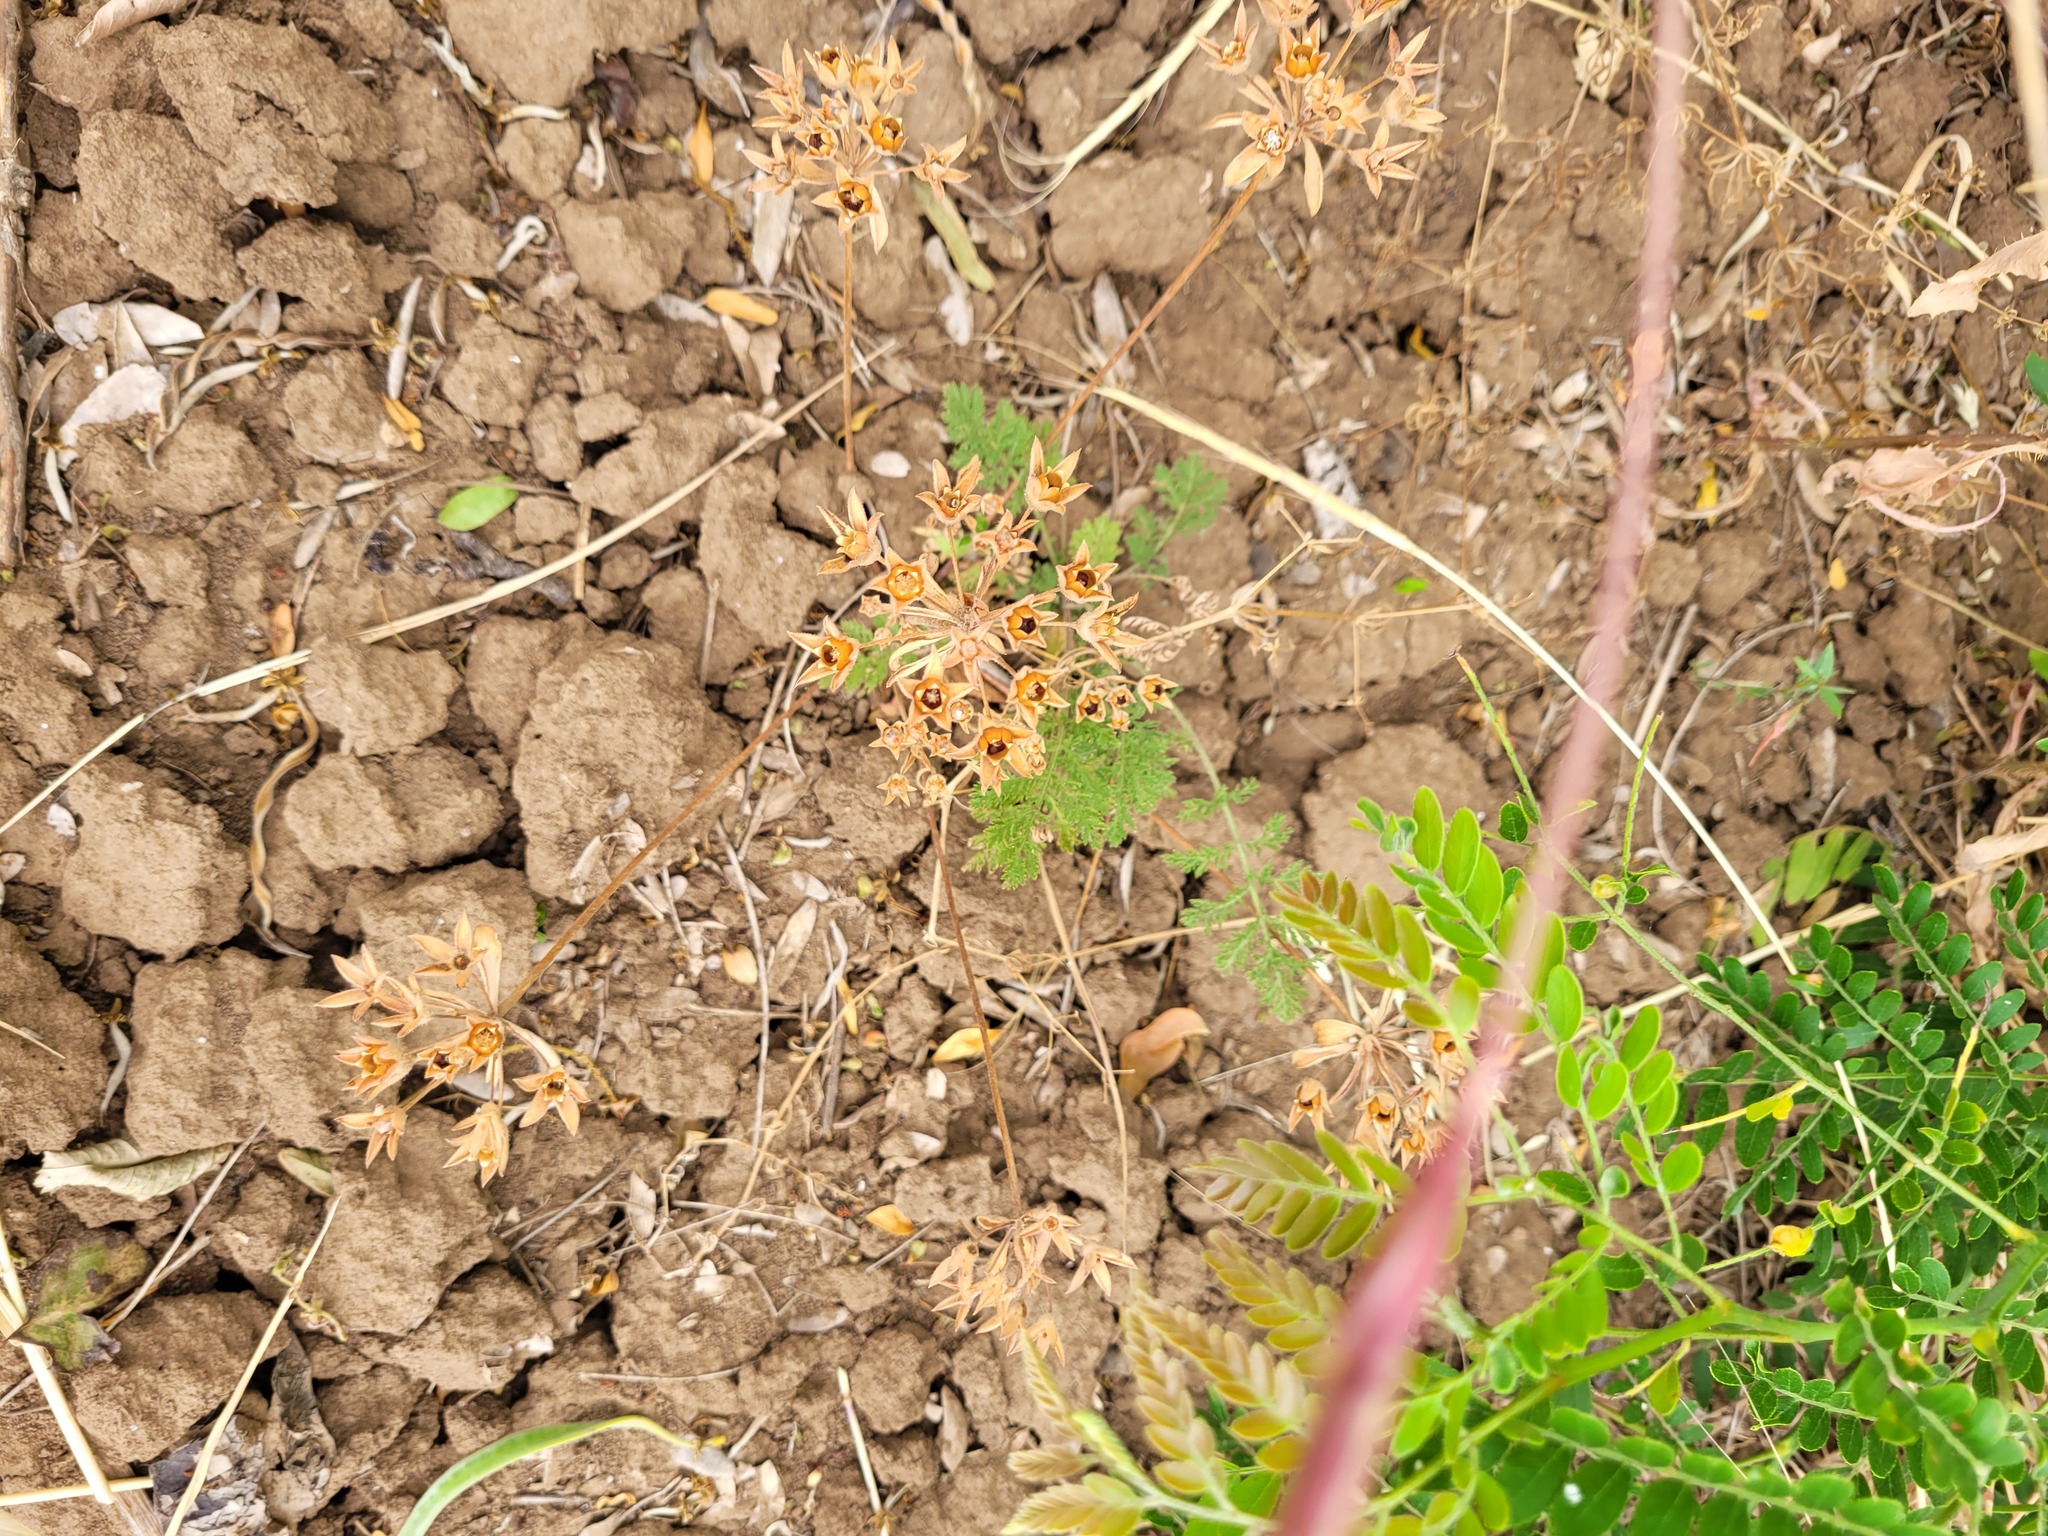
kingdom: Plantae
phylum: Tracheophyta
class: Magnoliopsida
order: Ericales
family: Primulaceae
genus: Androsace
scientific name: Androsace maxima
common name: Annual androsace
